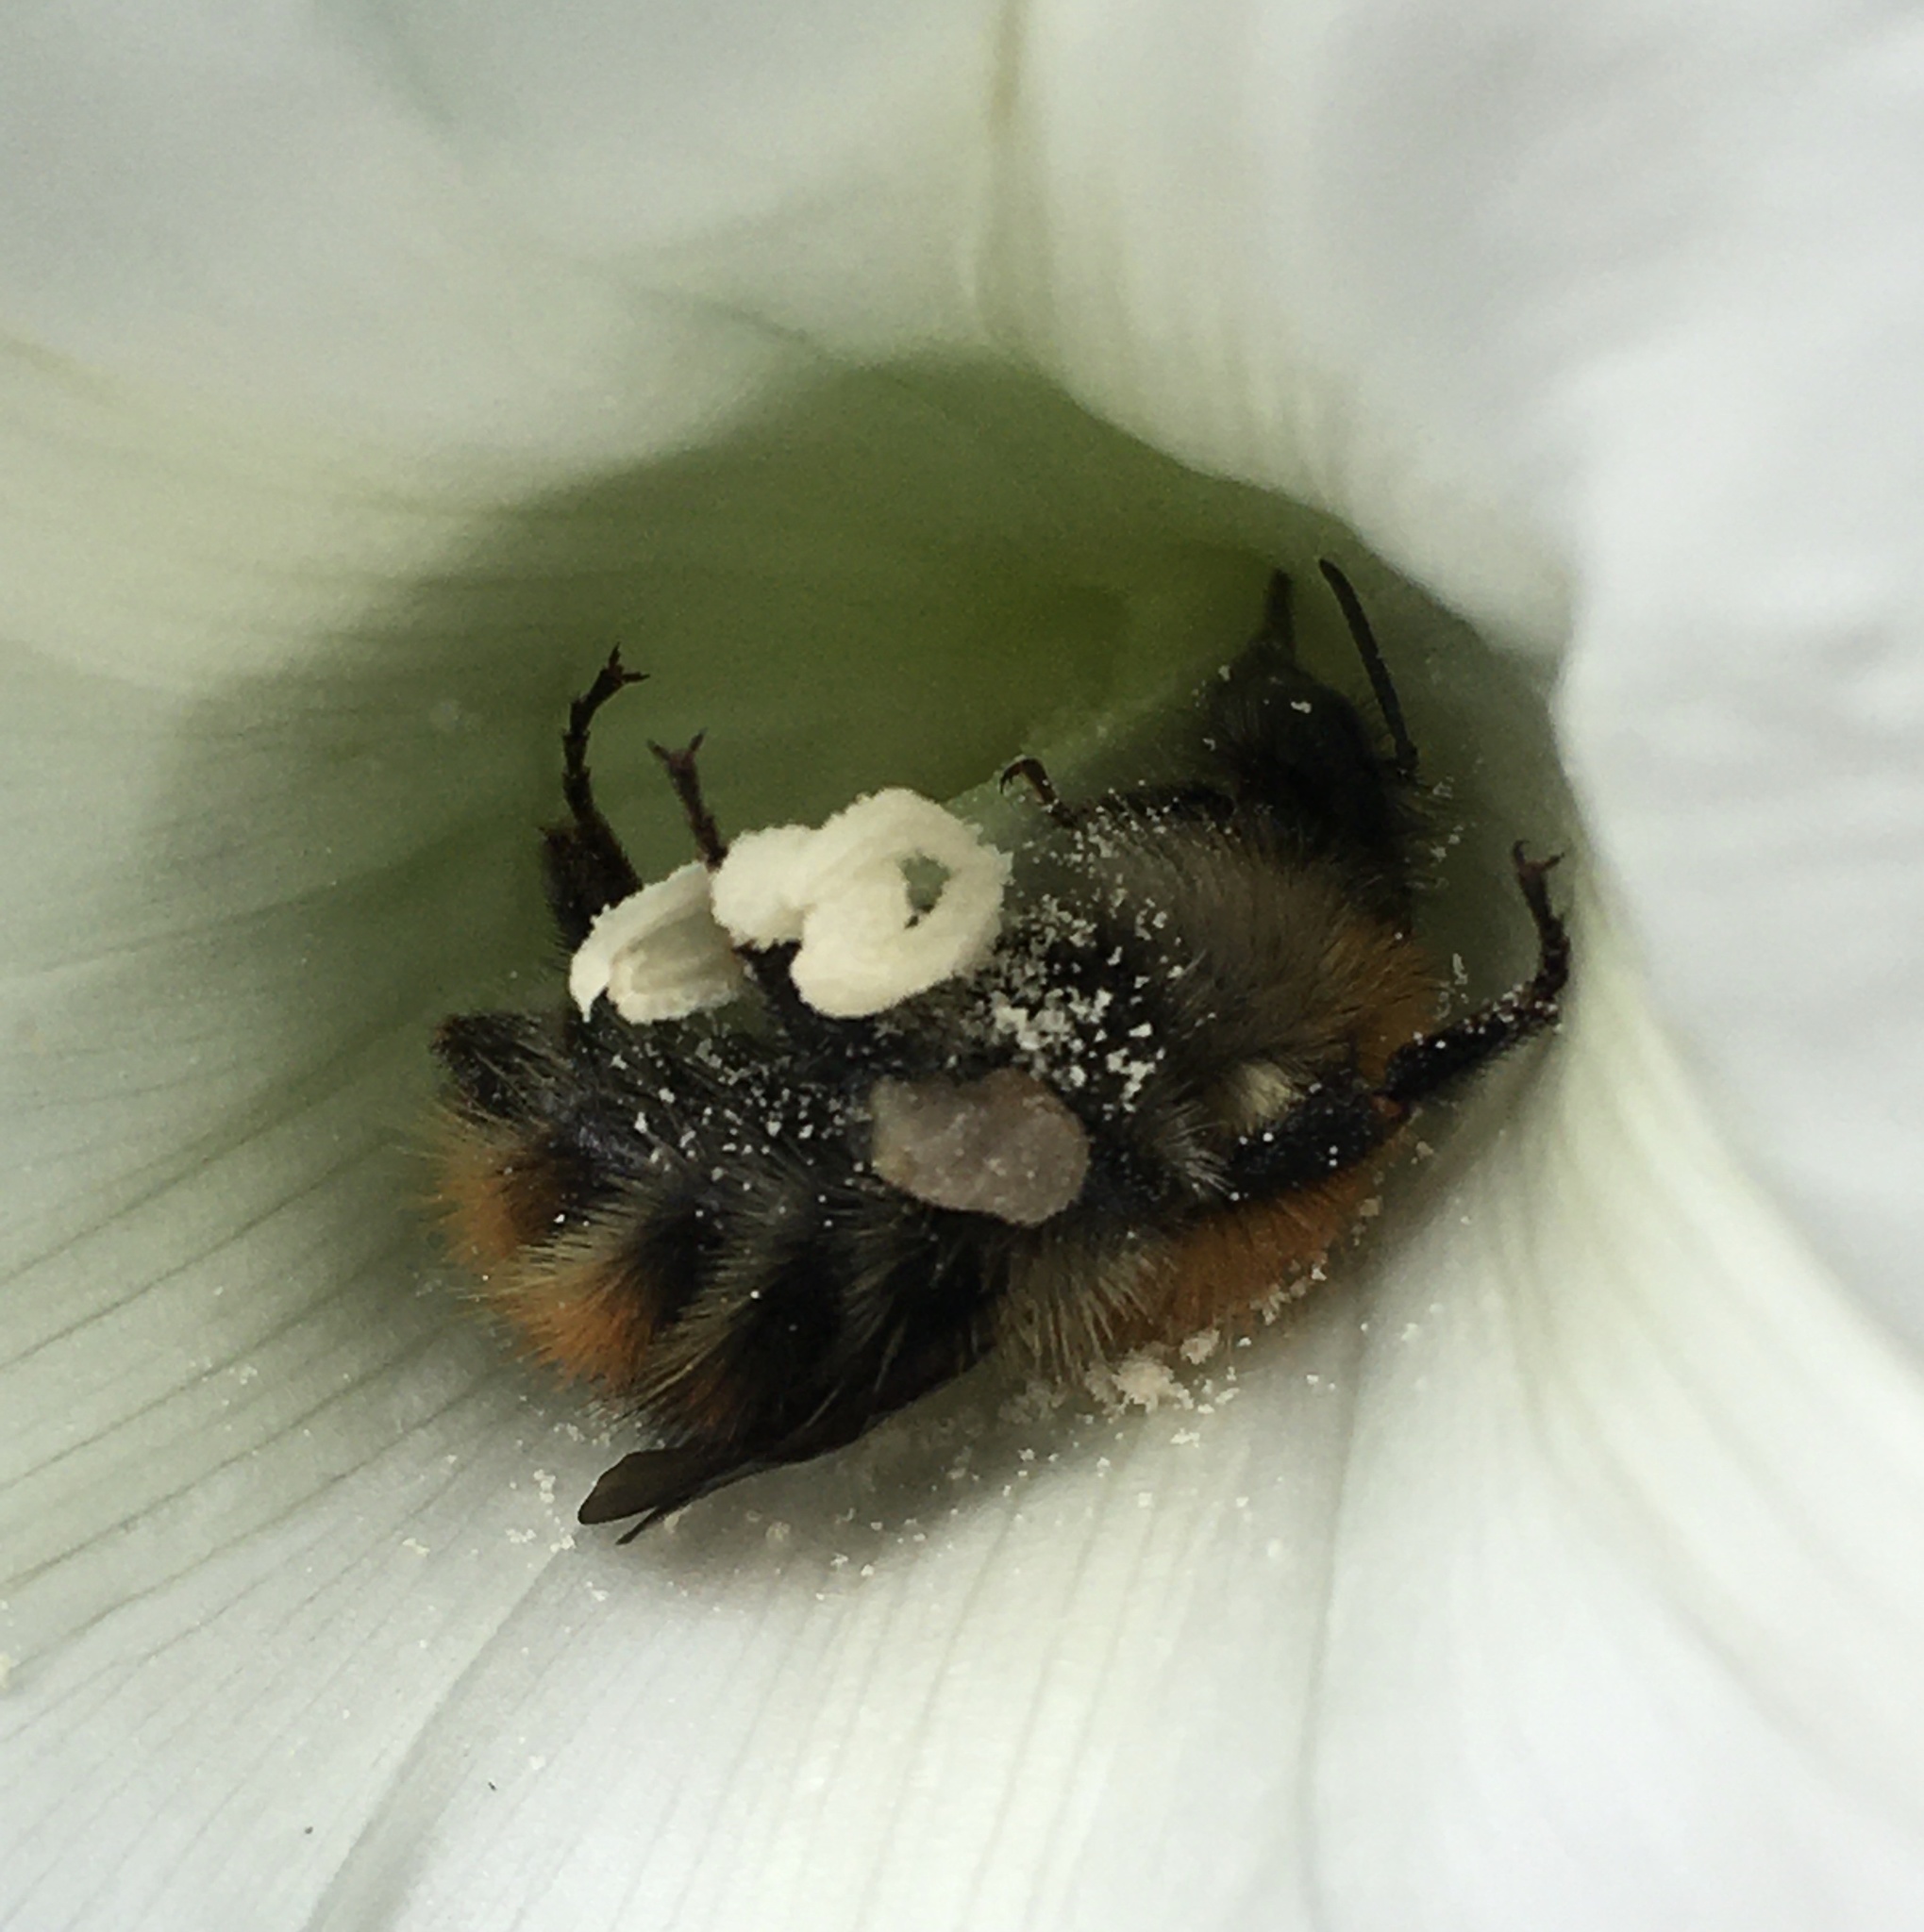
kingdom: Animalia
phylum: Arthropoda
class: Insecta
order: Hymenoptera
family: Apidae
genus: Bombus
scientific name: Bombus pascuorum
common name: Common carder bee
